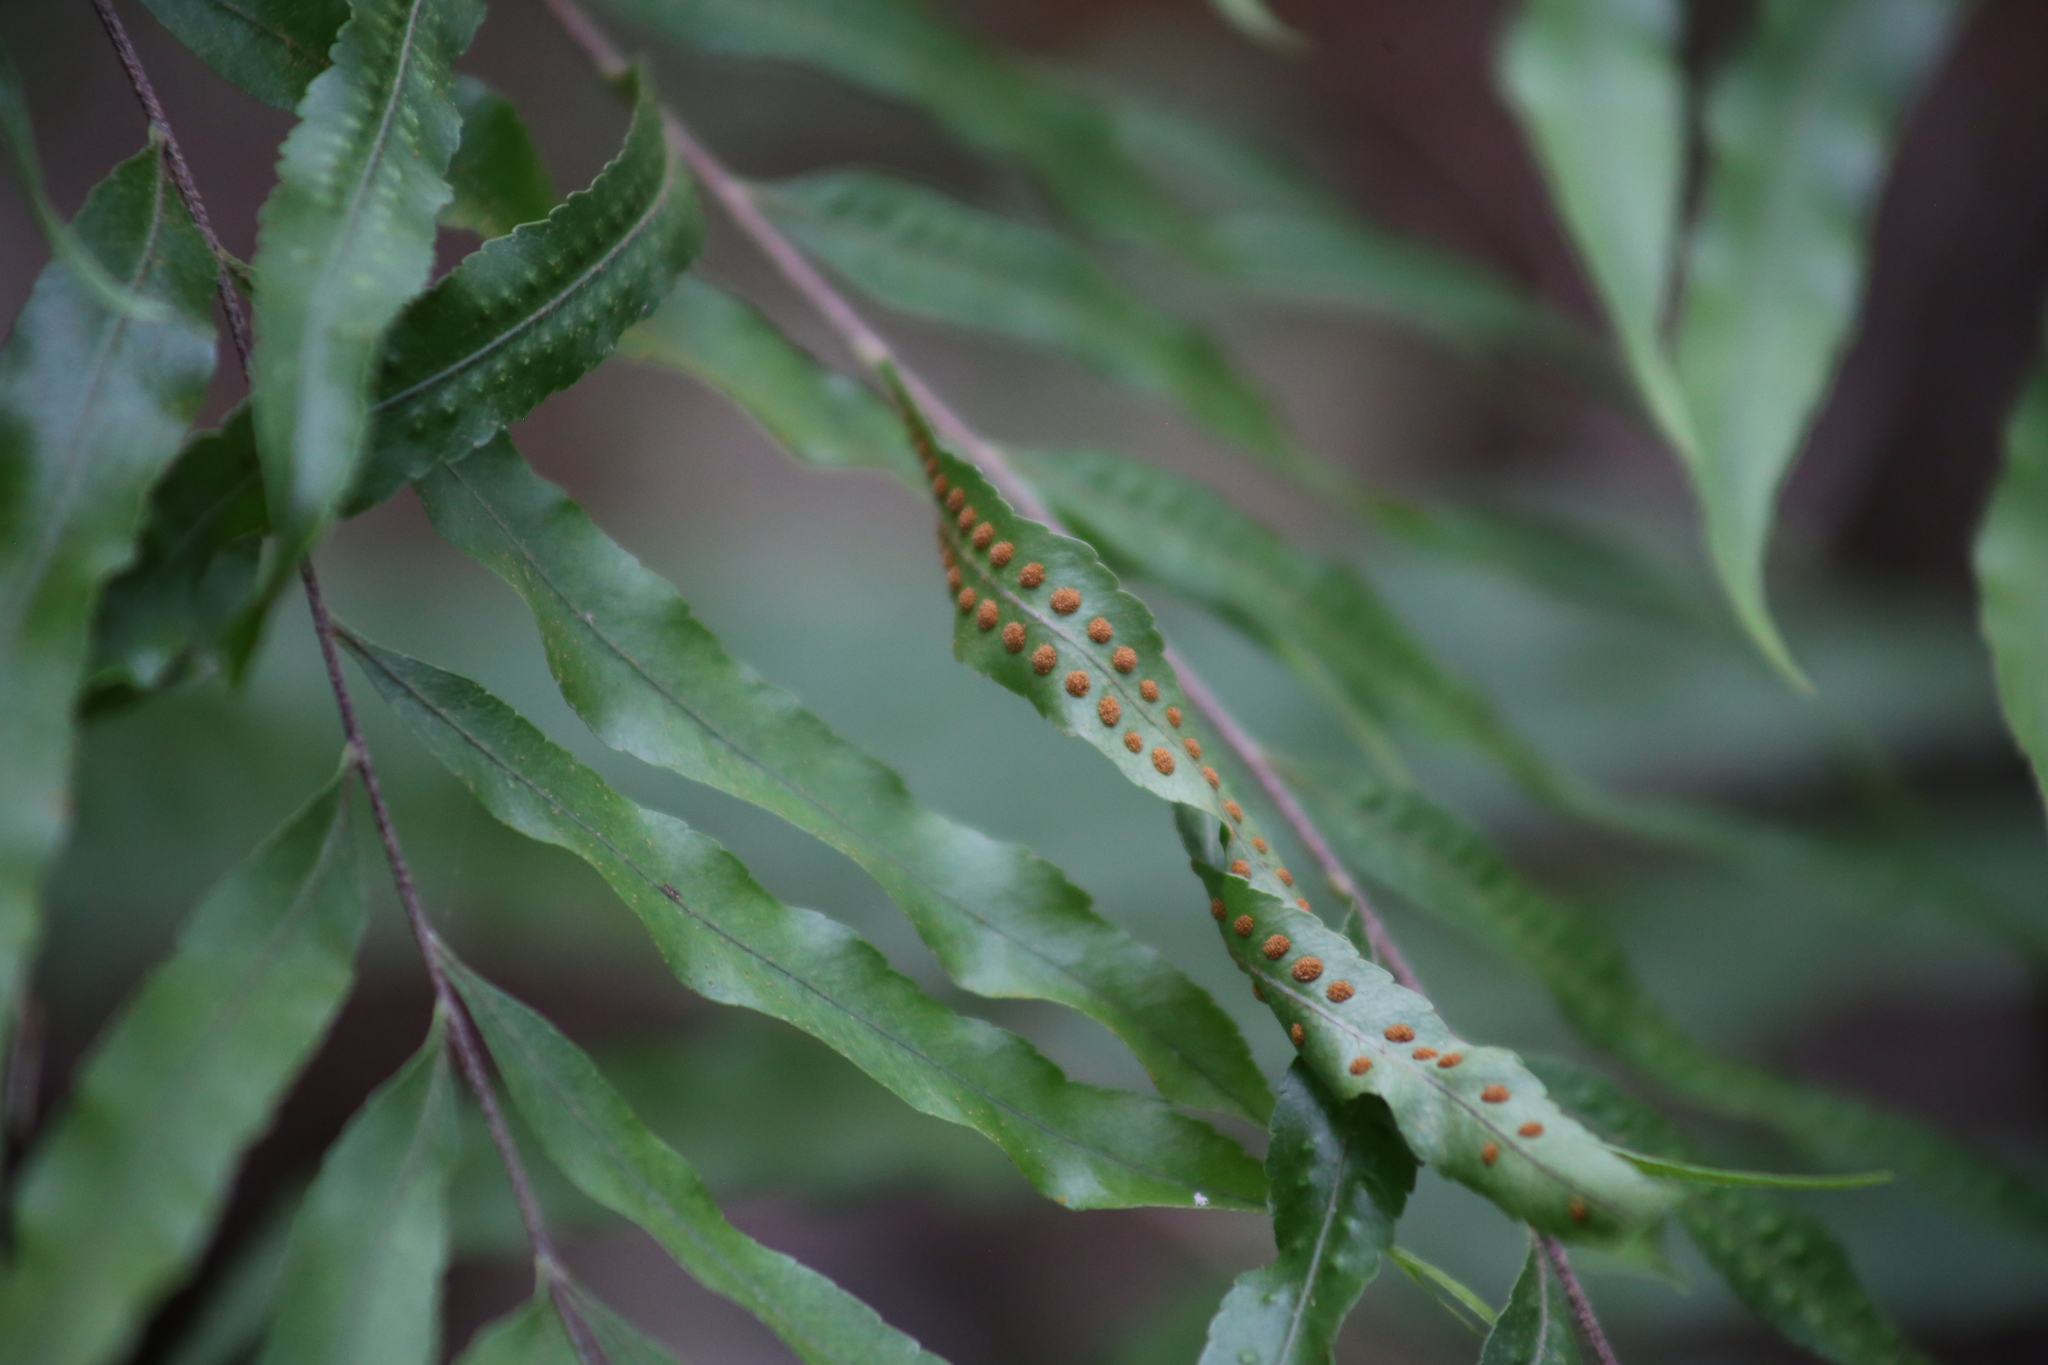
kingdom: Plantae
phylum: Tracheophyta
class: Polypodiopsida
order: Polypodiales
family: Polypodiaceae
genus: Drynaria
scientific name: Drynaria rigidula
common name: Basket fern
